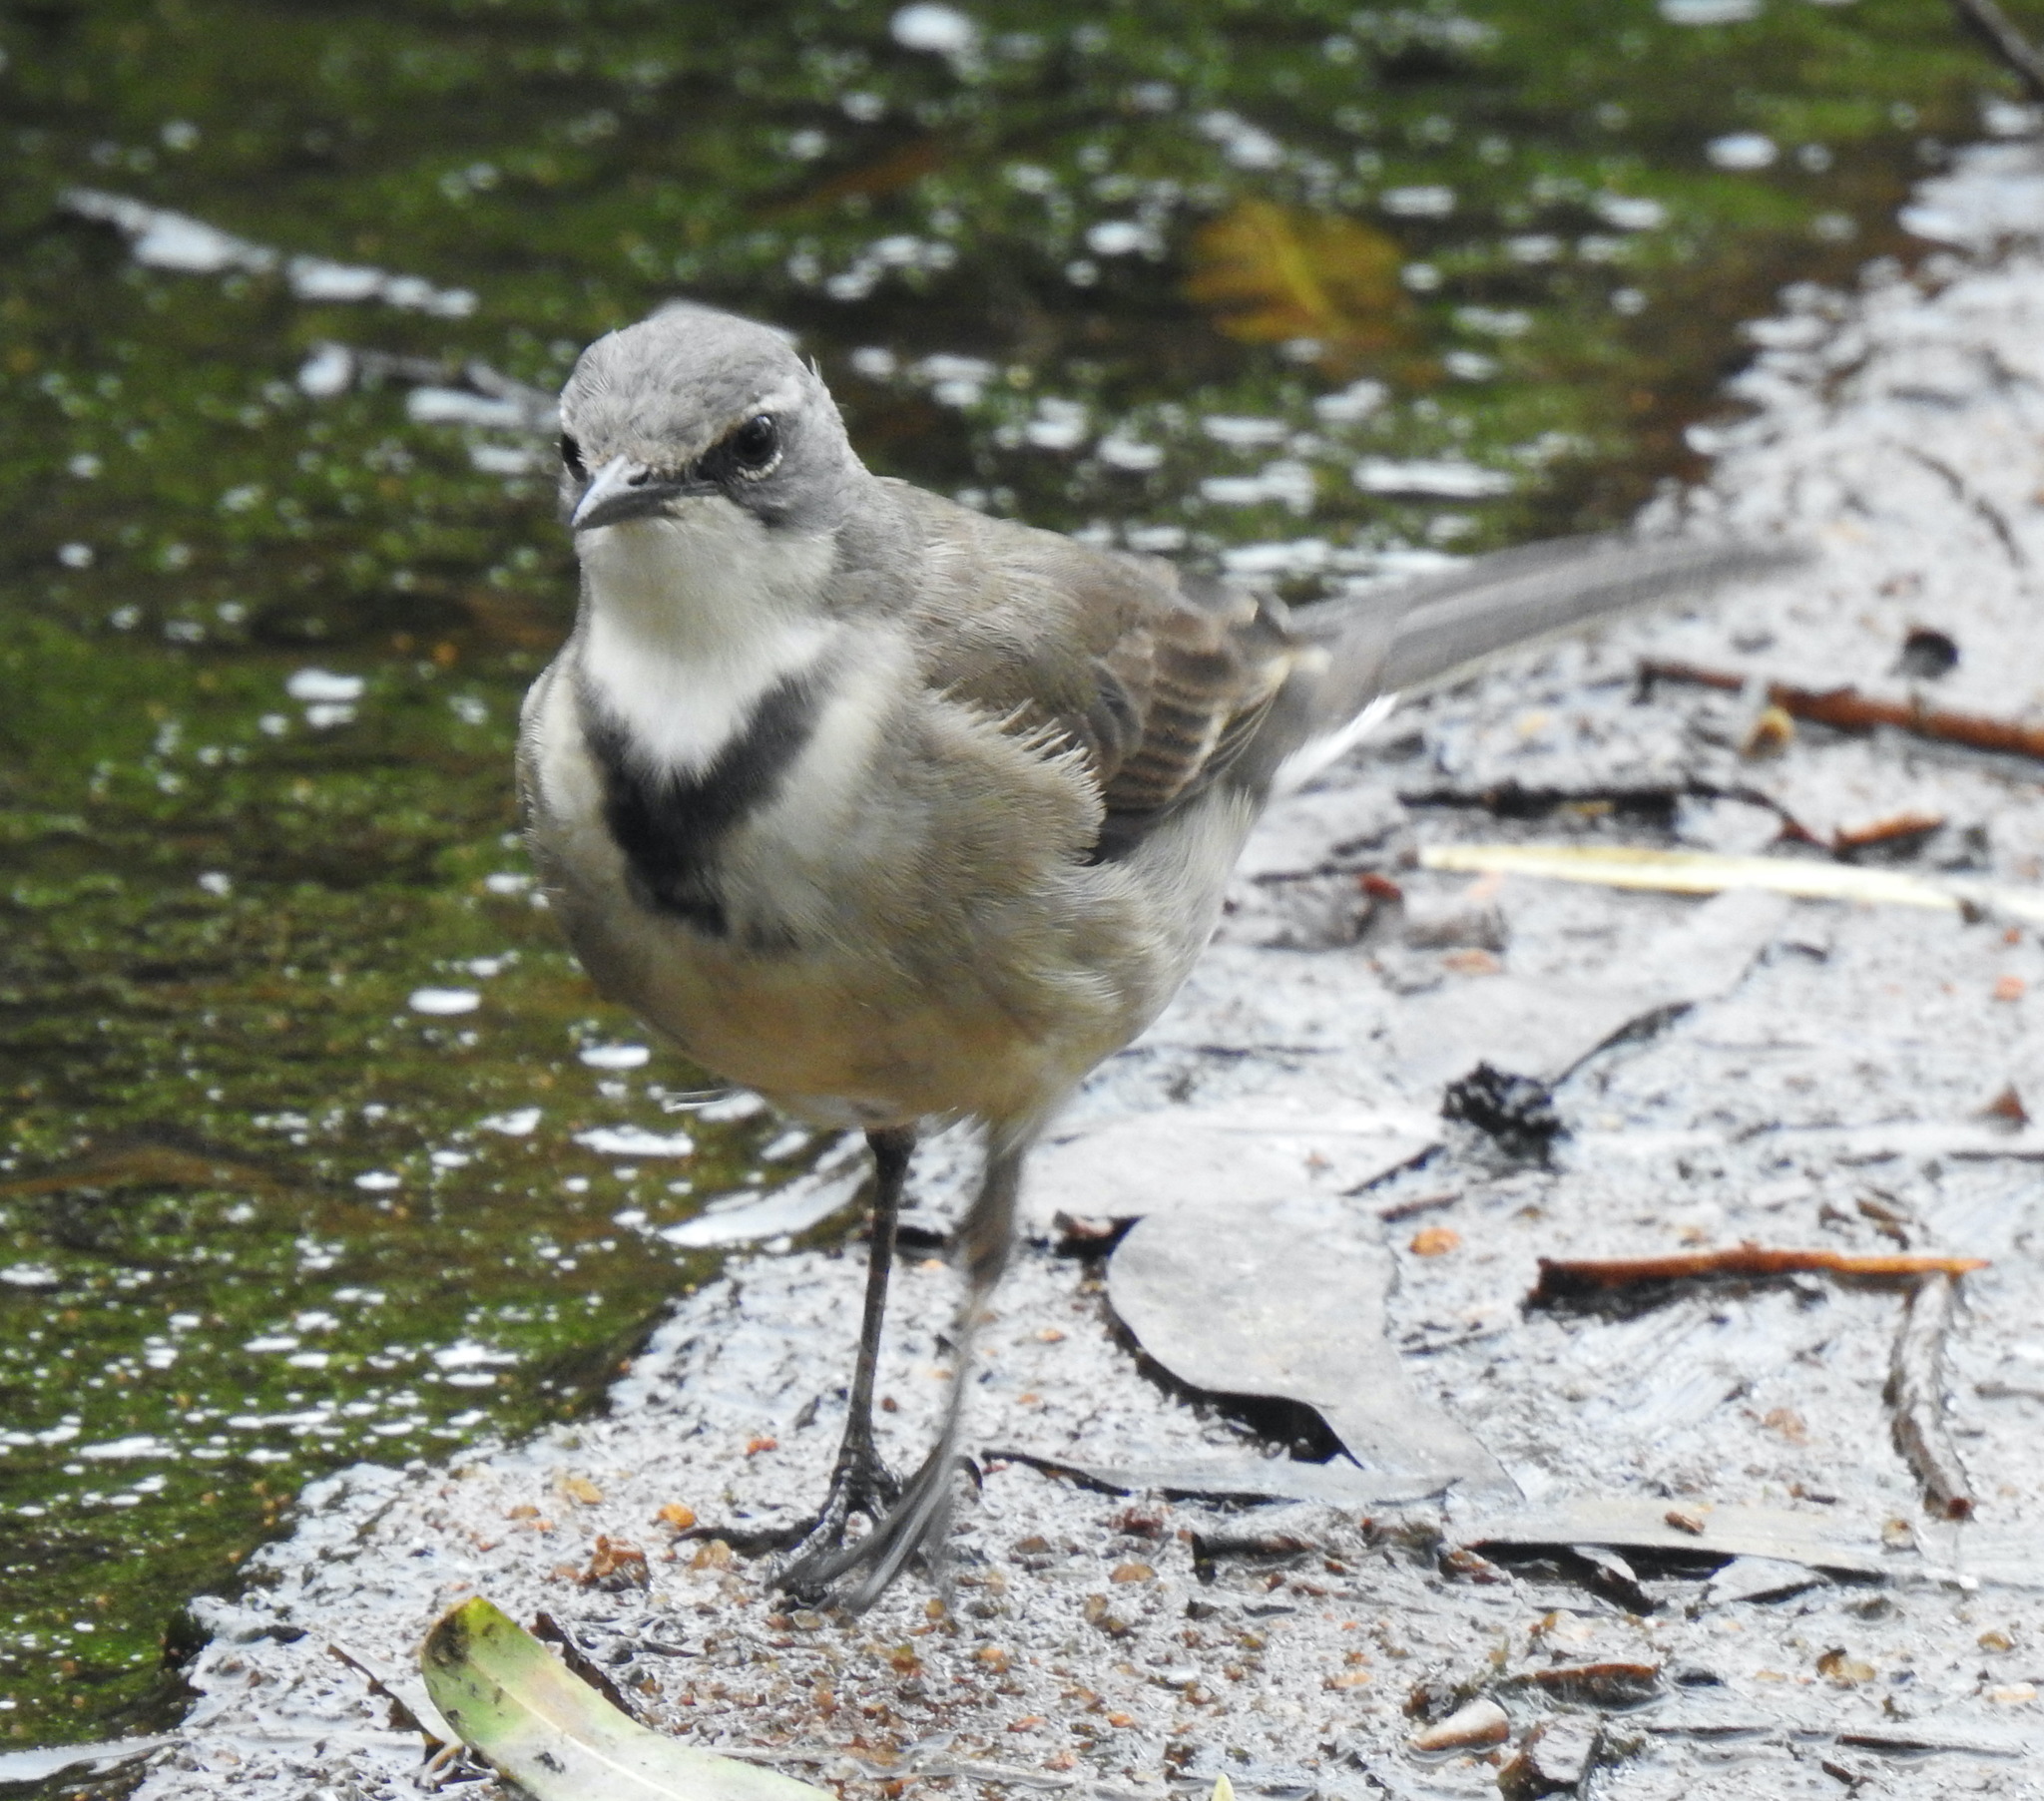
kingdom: Animalia
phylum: Chordata
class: Aves
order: Passeriformes
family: Motacillidae
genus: Motacilla
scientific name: Motacilla capensis
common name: Cape wagtail
